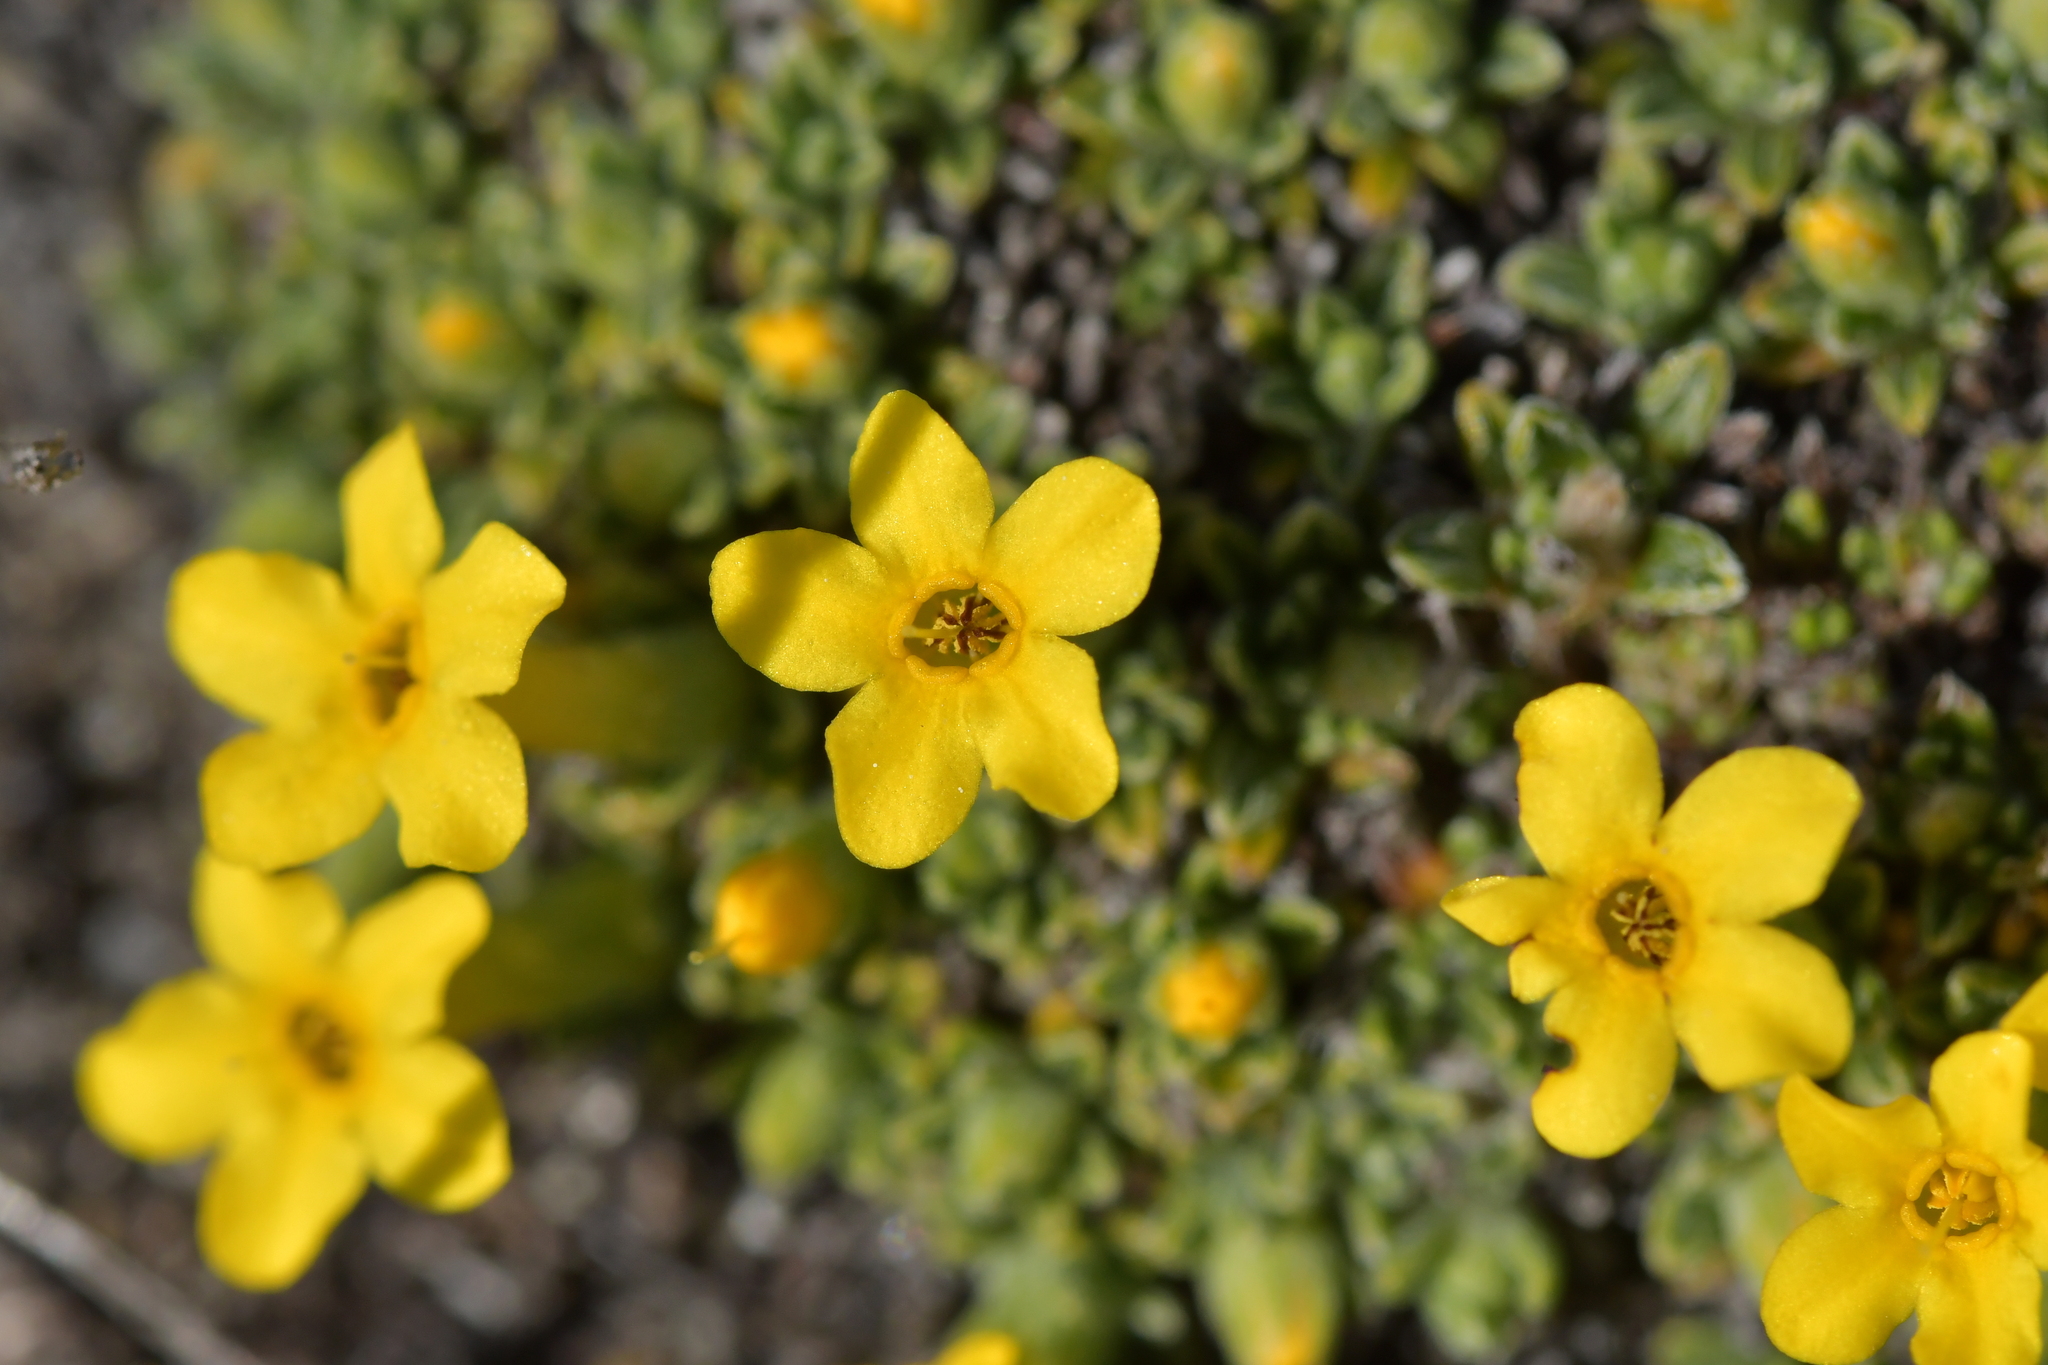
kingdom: Plantae
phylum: Tracheophyta
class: Magnoliopsida
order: Boraginales
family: Boraginaceae
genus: Myosotis
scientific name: Myosotis uniflora
